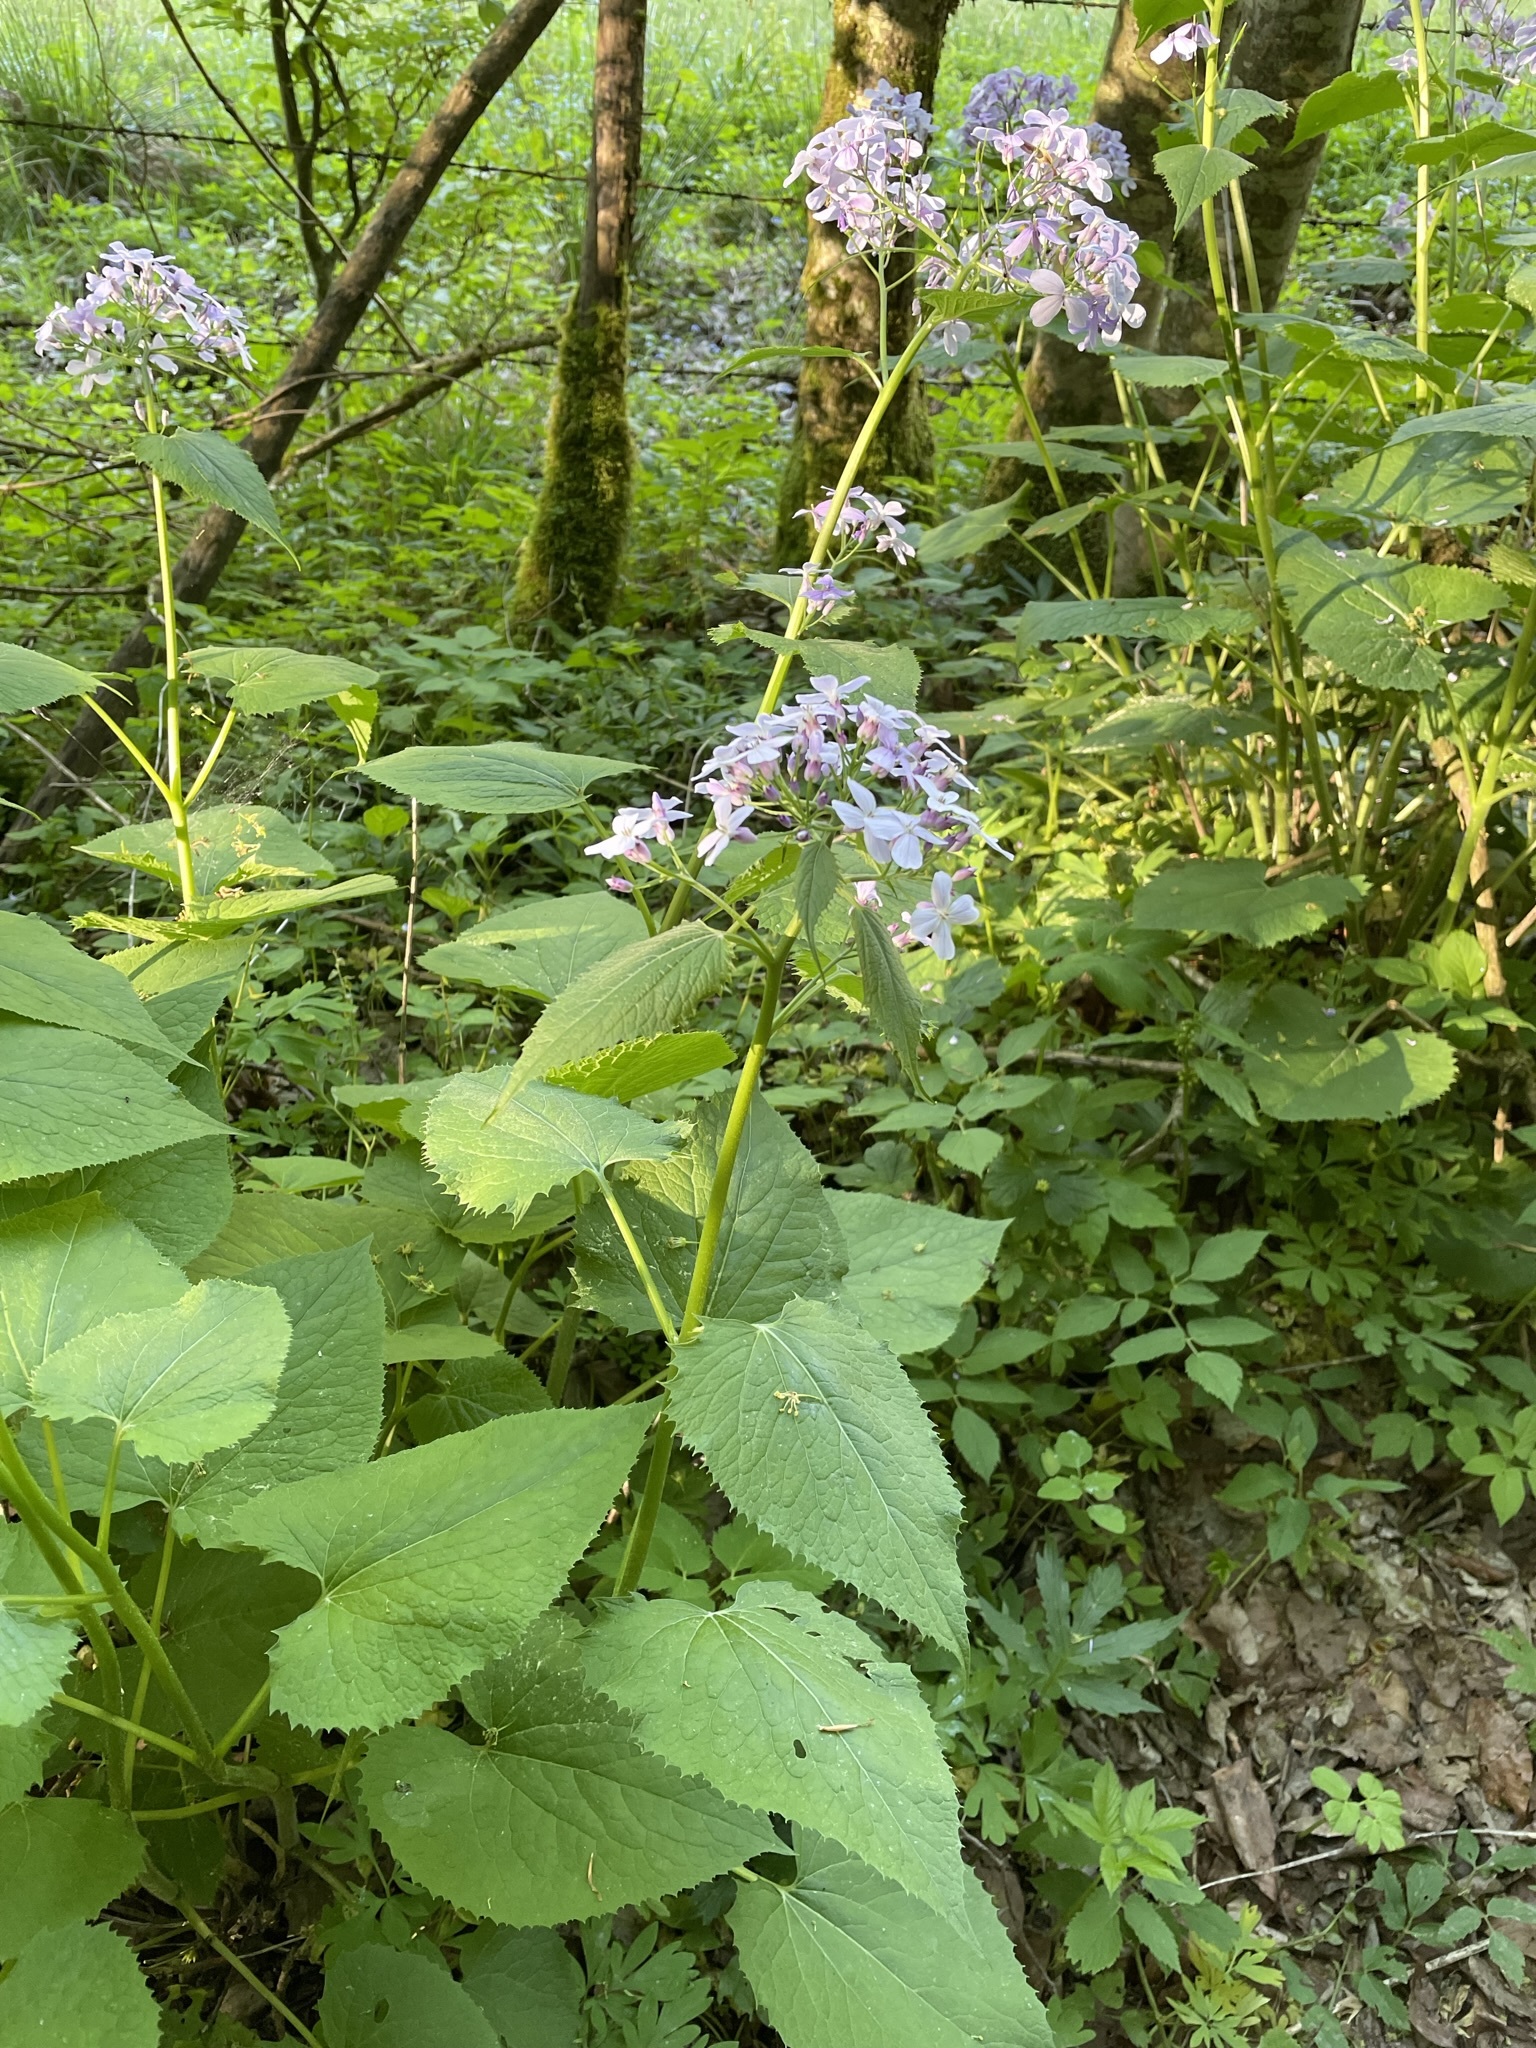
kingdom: Plantae
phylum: Tracheophyta
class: Magnoliopsida
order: Brassicales
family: Brassicaceae
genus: Lunaria
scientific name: Lunaria rediviva
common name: Perennial honesty
